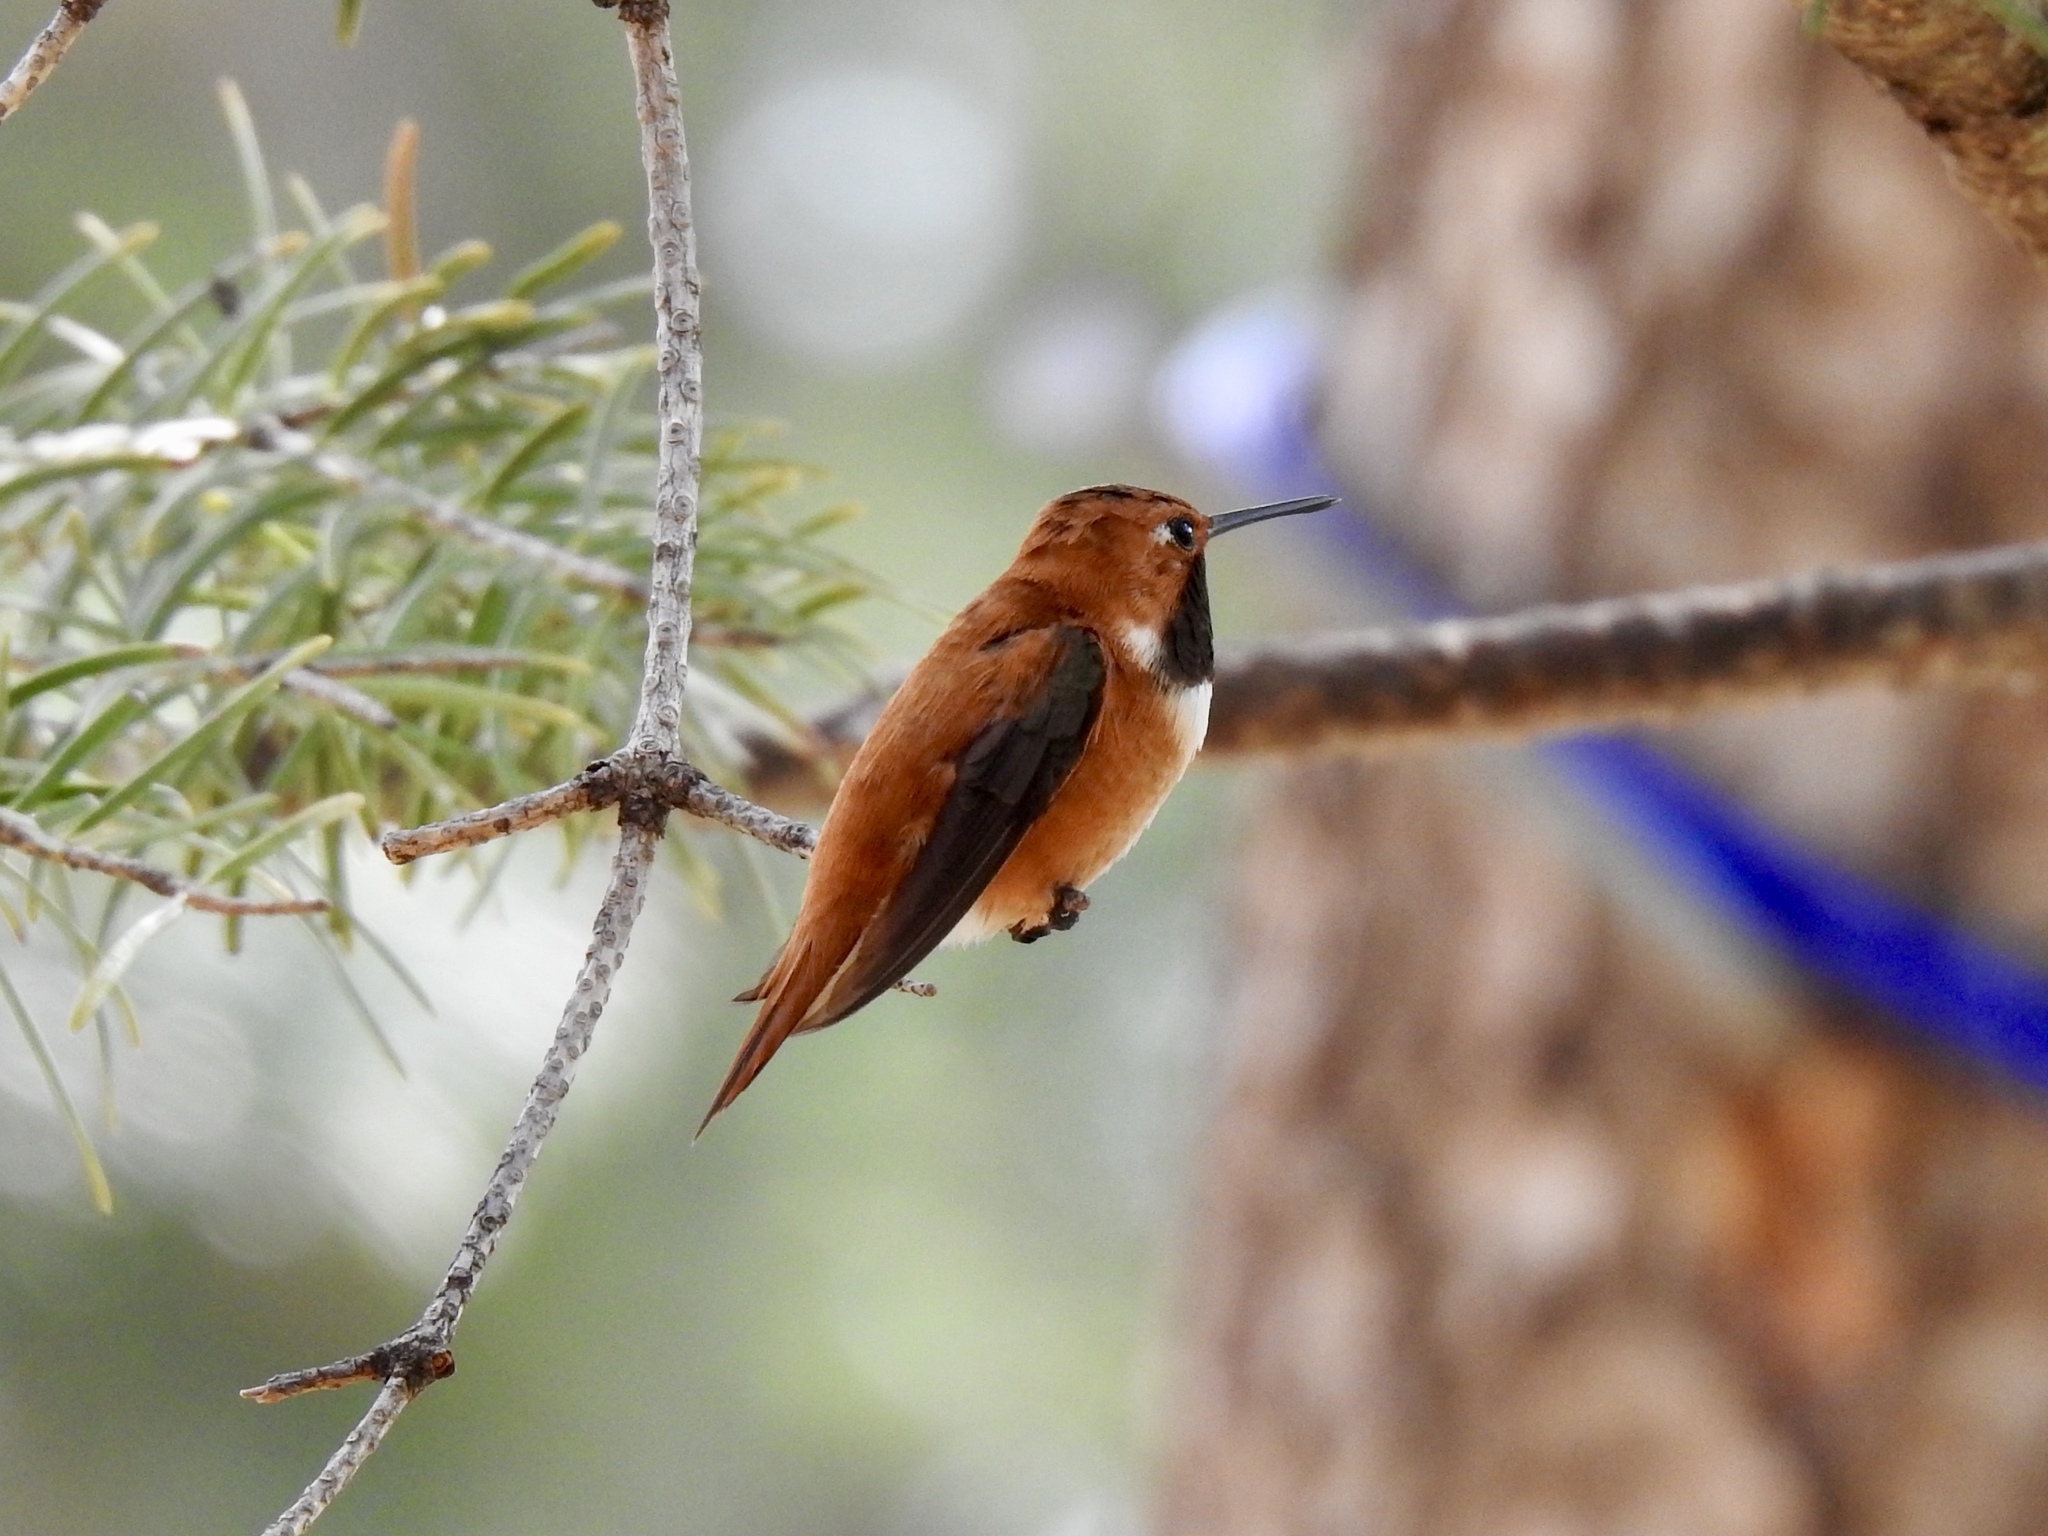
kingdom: Animalia
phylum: Chordata
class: Aves
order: Apodiformes
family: Trochilidae
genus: Selasphorus
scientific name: Selasphorus rufus
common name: Rufous hummingbird
